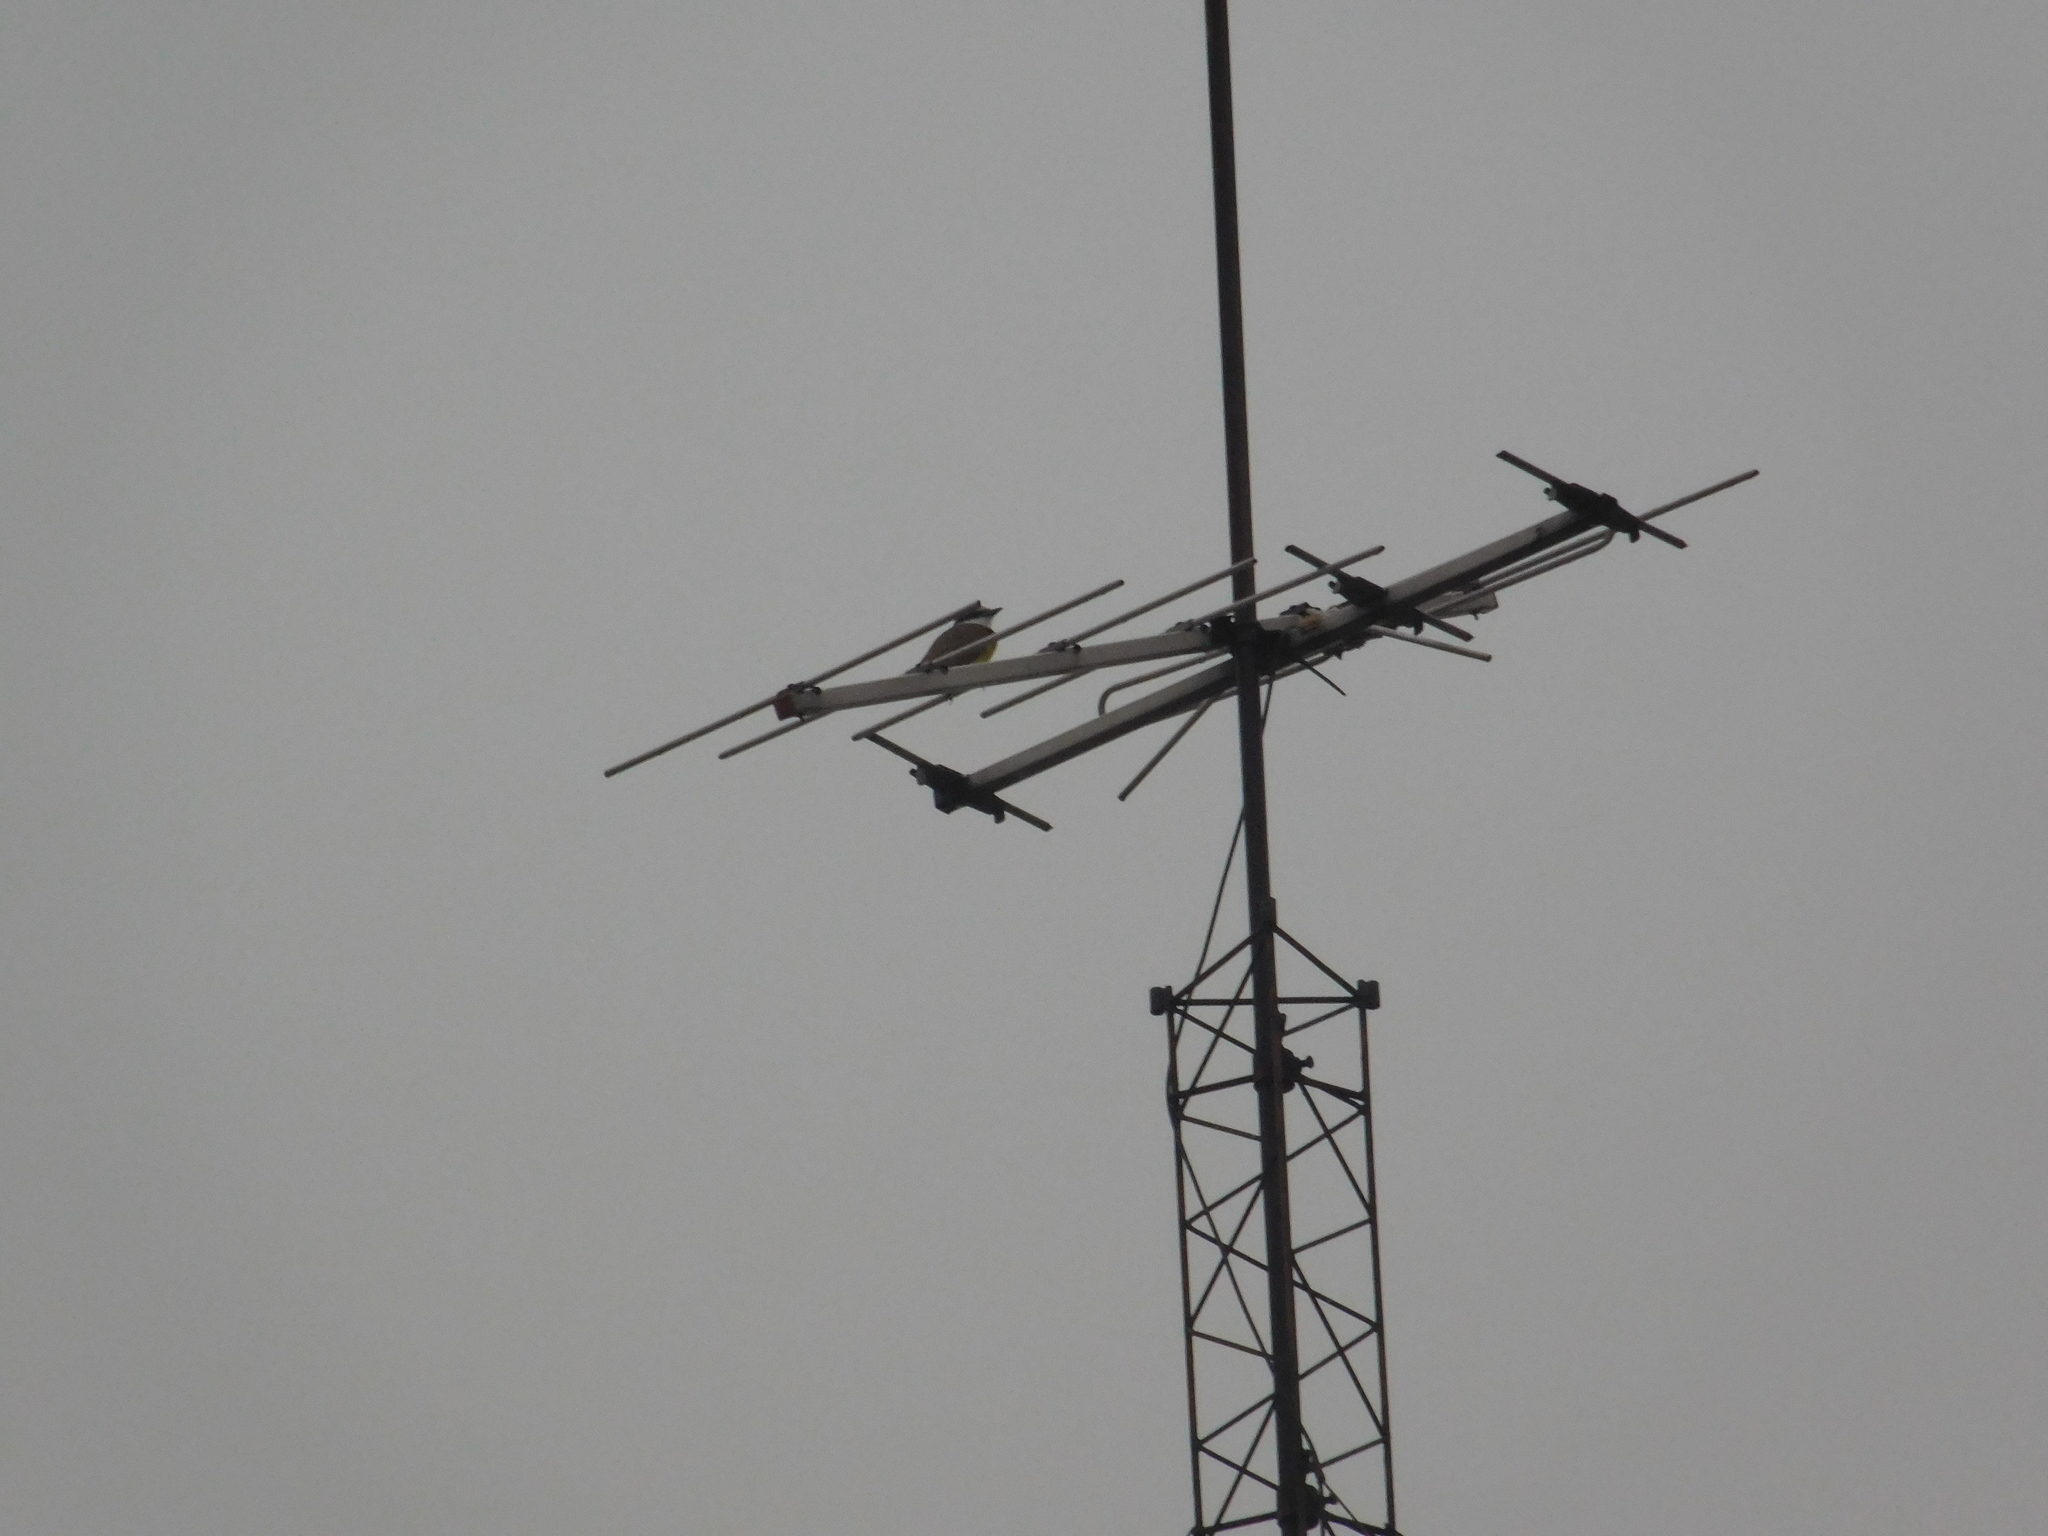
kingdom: Animalia
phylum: Chordata
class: Aves
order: Passeriformes
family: Tyrannidae
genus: Pitangus
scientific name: Pitangus sulphuratus
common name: Great kiskadee
